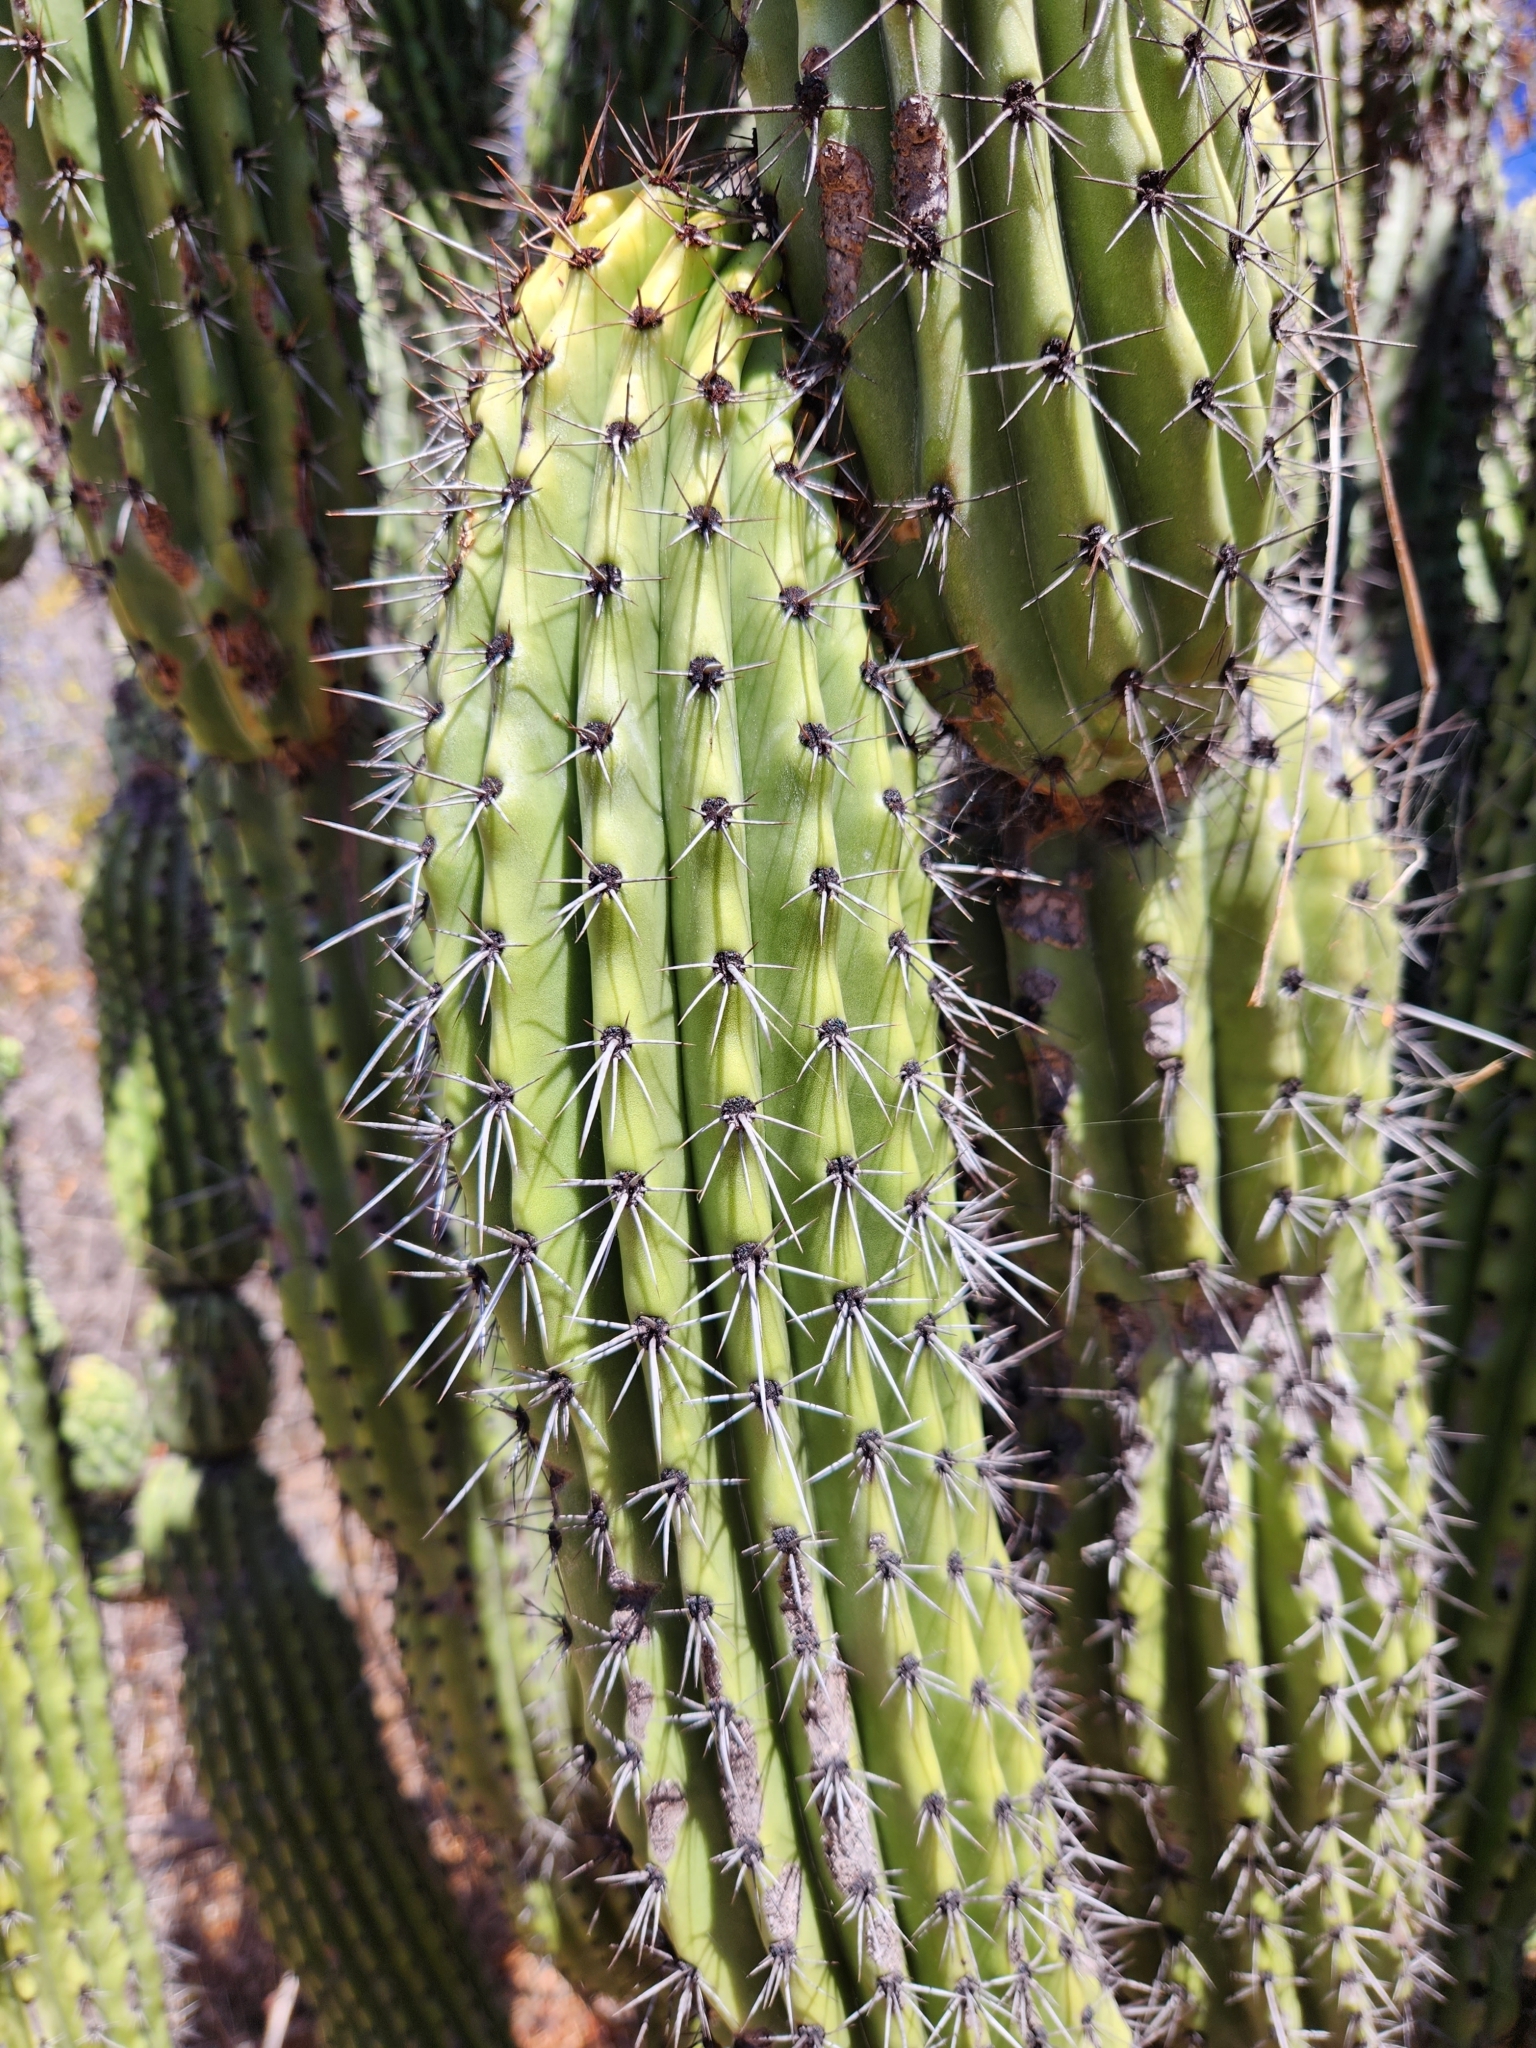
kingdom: Plantae
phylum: Tracheophyta
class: Magnoliopsida
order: Caryophyllales
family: Cactaceae
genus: Stenocereus
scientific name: Stenocereus thurberi
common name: Organ pipe cactus
